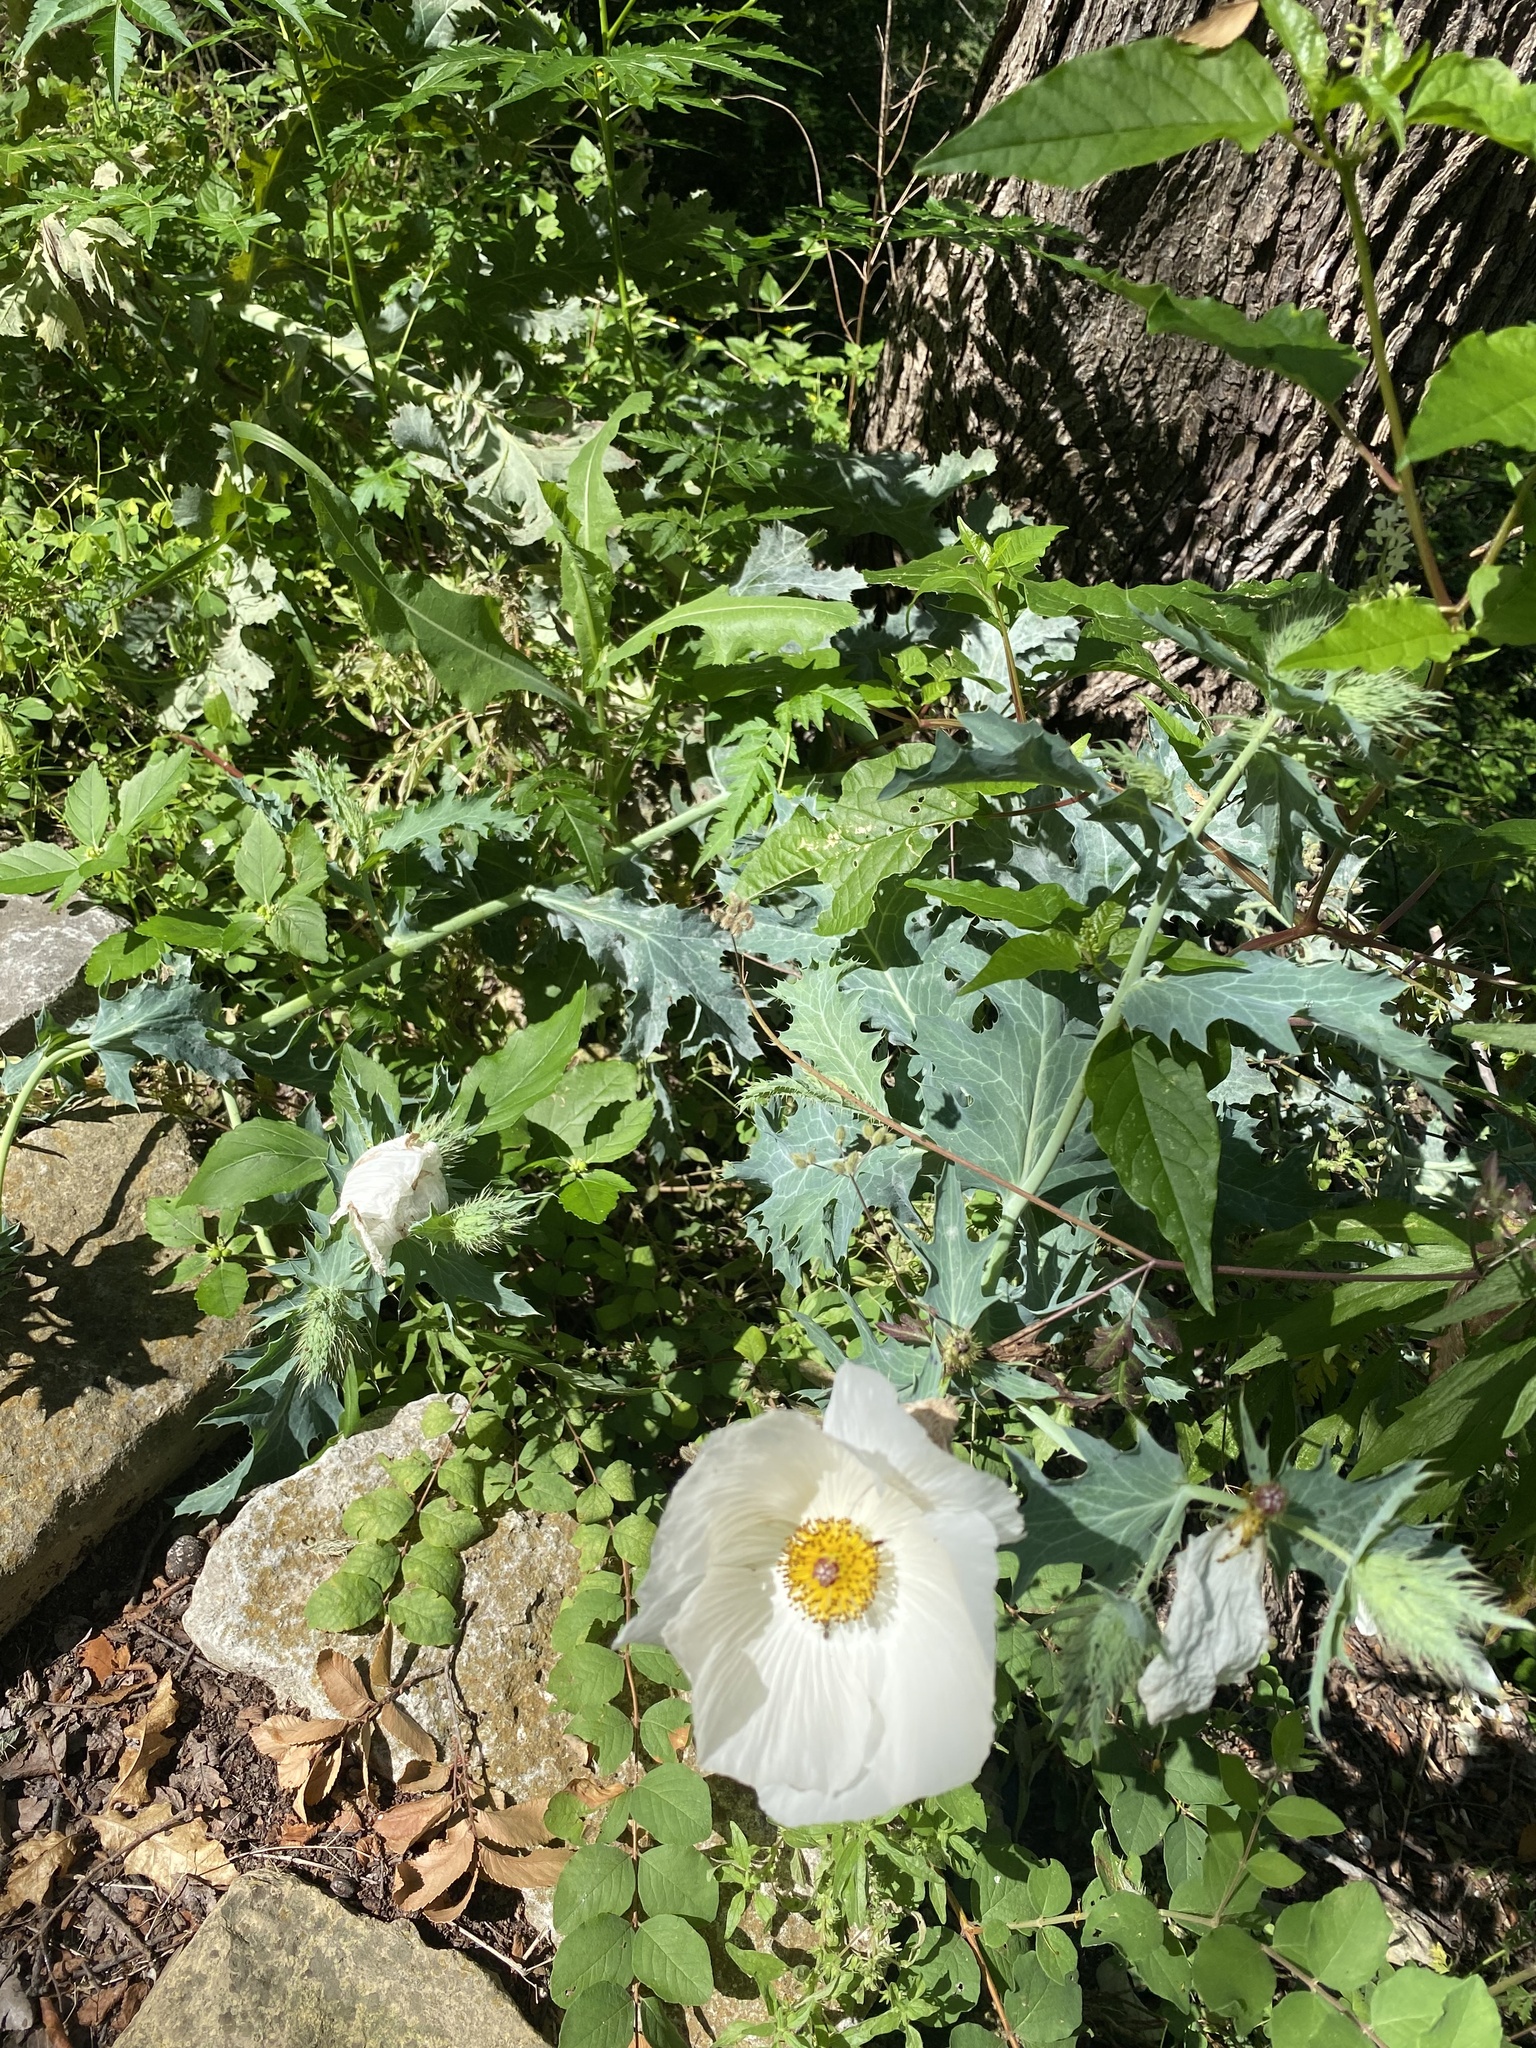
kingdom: Plantae
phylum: Tracheophyta
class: Magnoliopsida
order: Ranunculales
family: Papaveraceae
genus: Argemone
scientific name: Argemone albiflora
